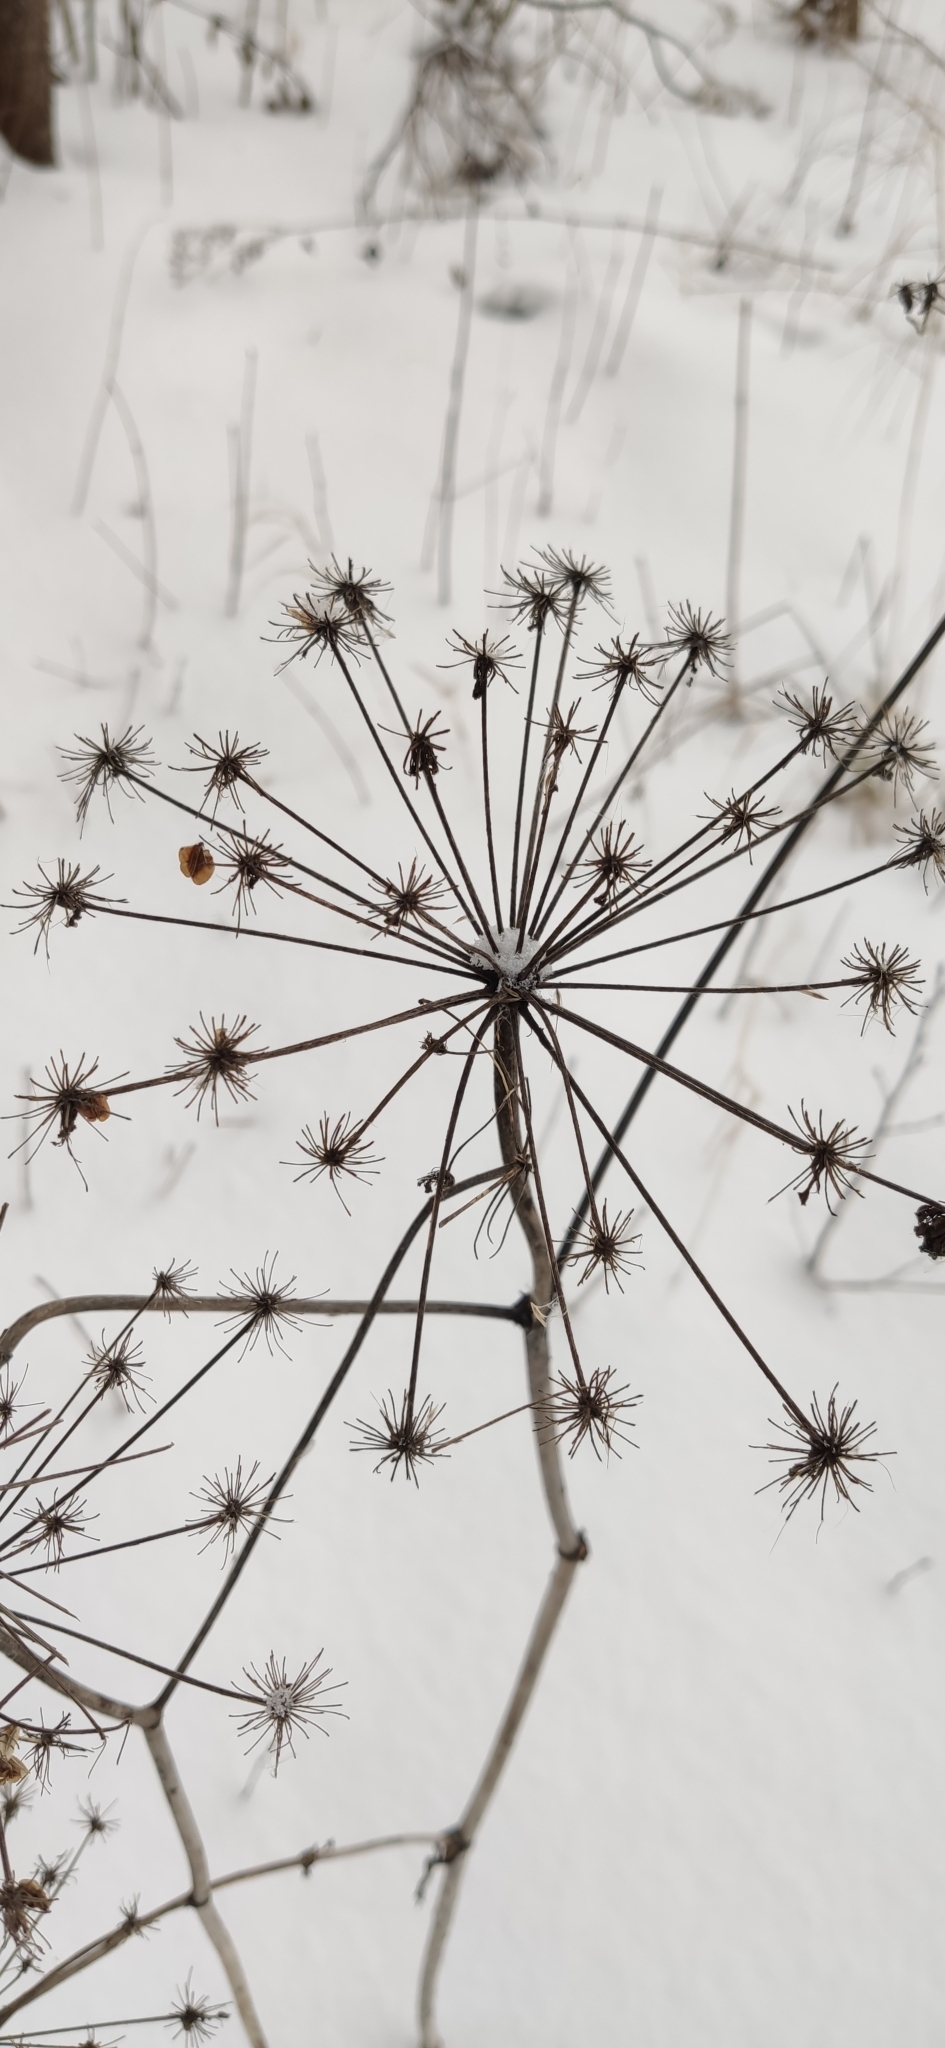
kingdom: Plantae
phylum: Tracheophyta
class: Magnoliopsida
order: Apiales
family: Apiaceae
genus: Angelica
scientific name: Angelica sylvestris
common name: Wild angelica
